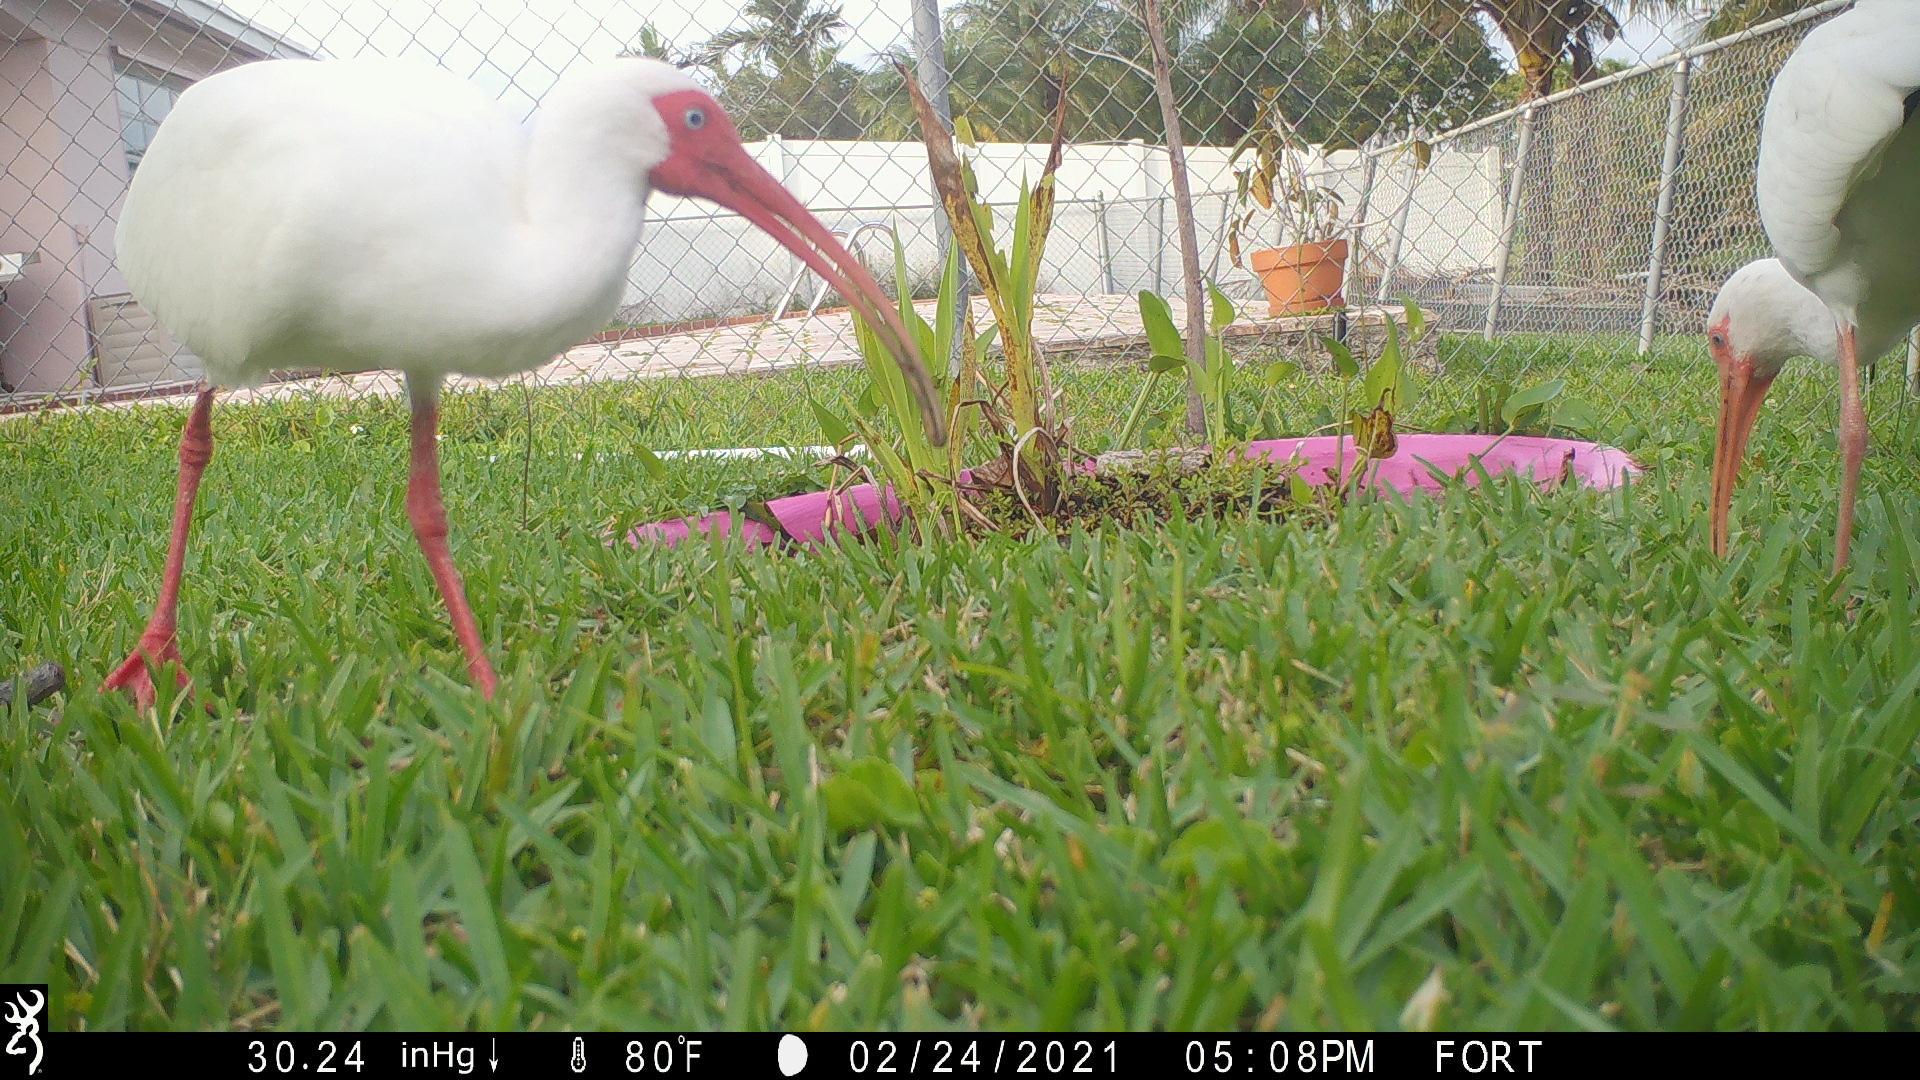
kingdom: Animalia
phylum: Chordata
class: Aves
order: Pelecaniformes
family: Threskiornithidae
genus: Eudocimus
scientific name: Eudocimus albus
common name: White ibis
